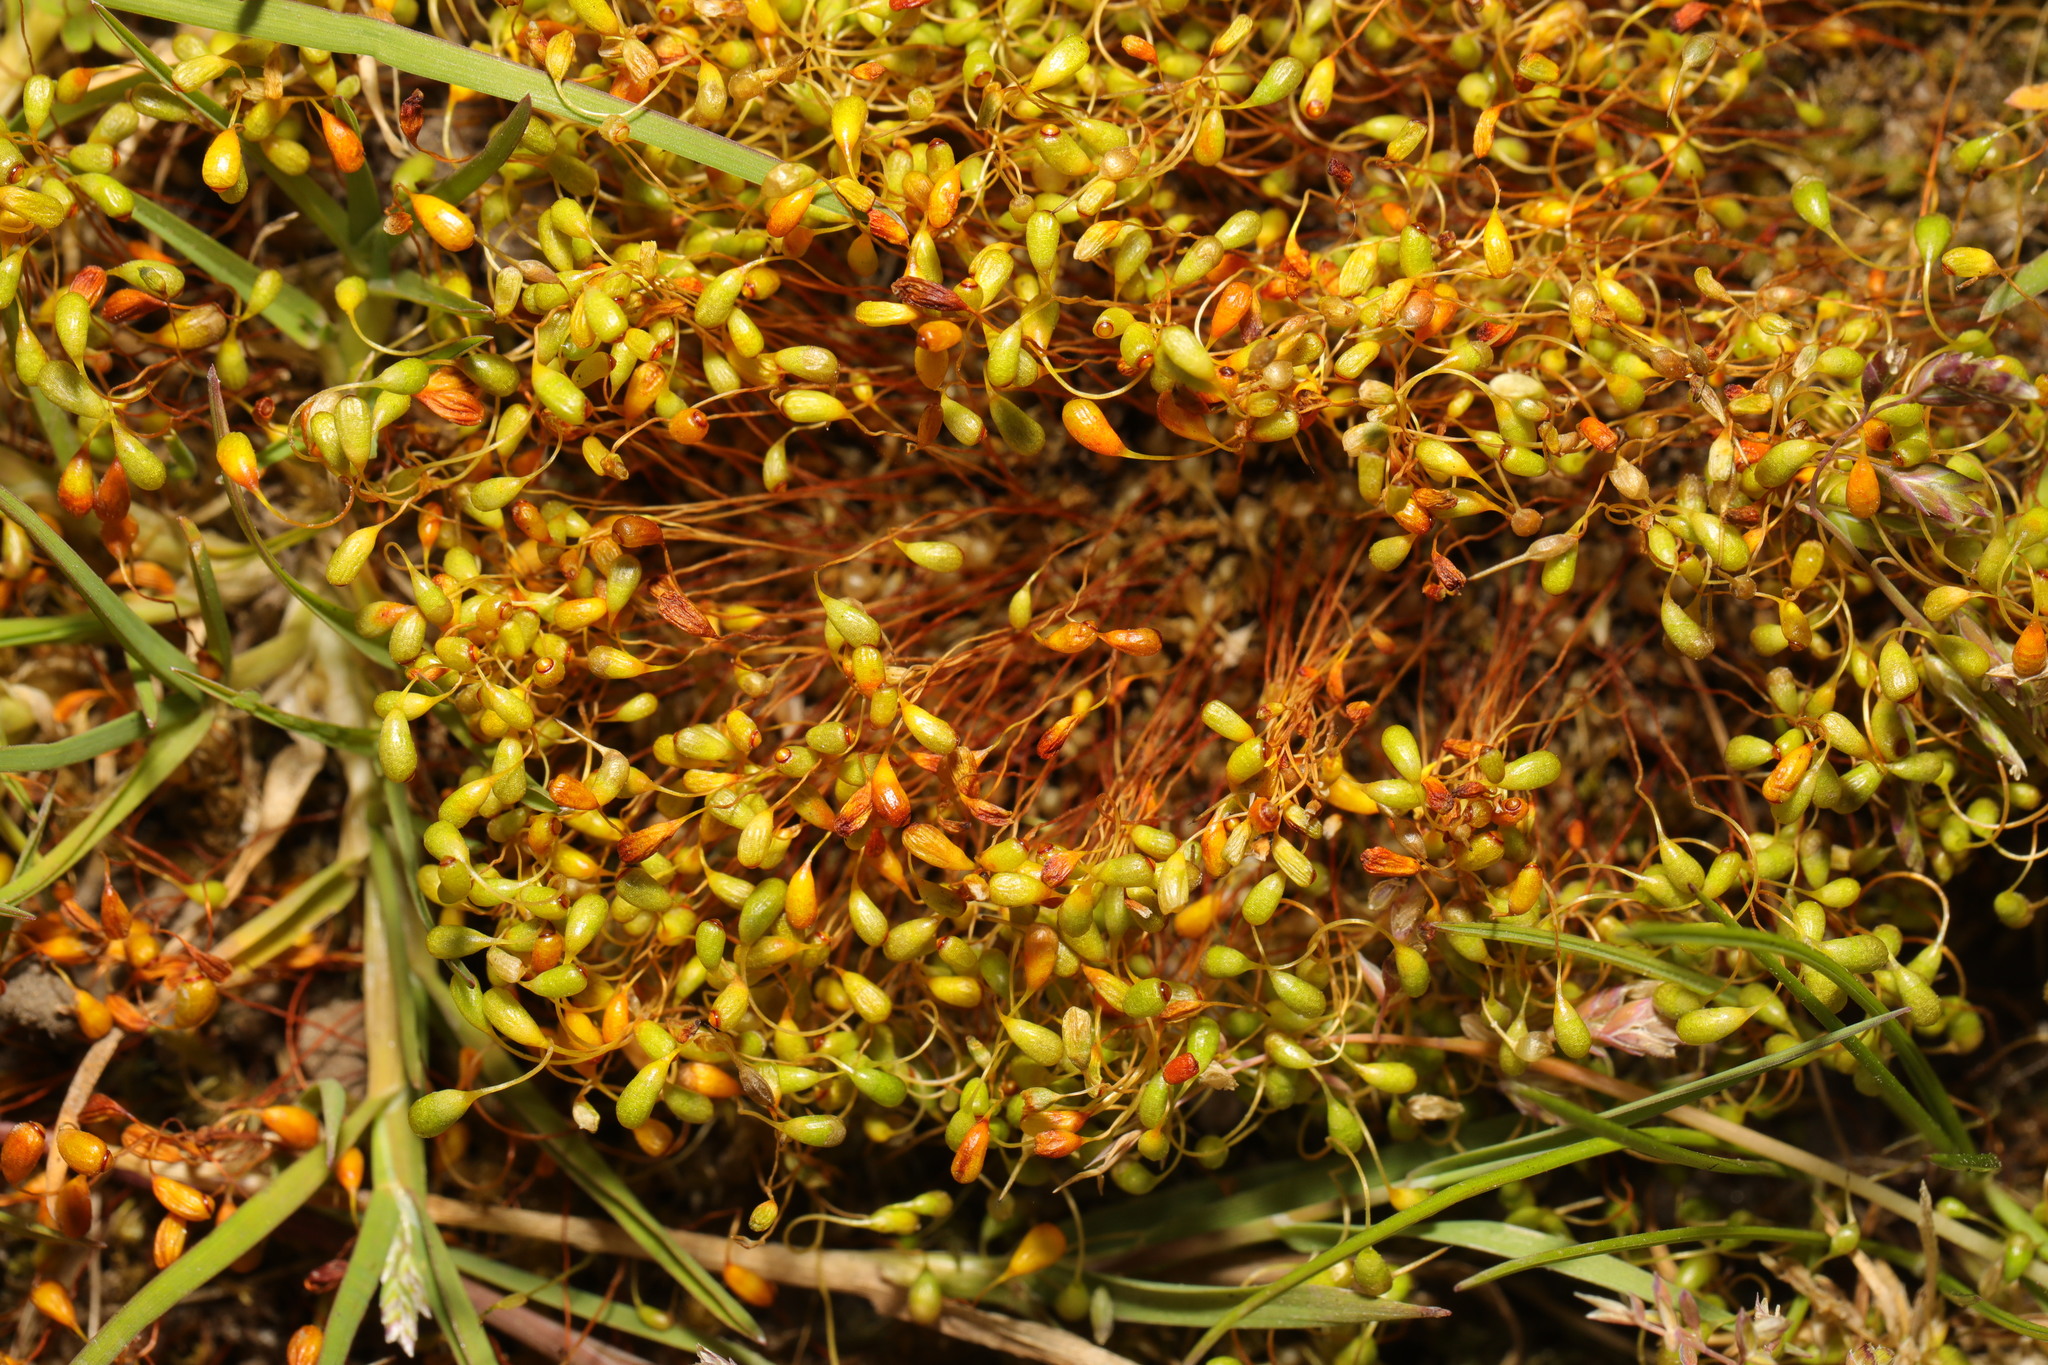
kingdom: Plantae
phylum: Bryophyta
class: Bryopsida
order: Funariales
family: Funariaceae
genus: Funaria
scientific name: Funaria hygrometrica
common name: Common cord moss
